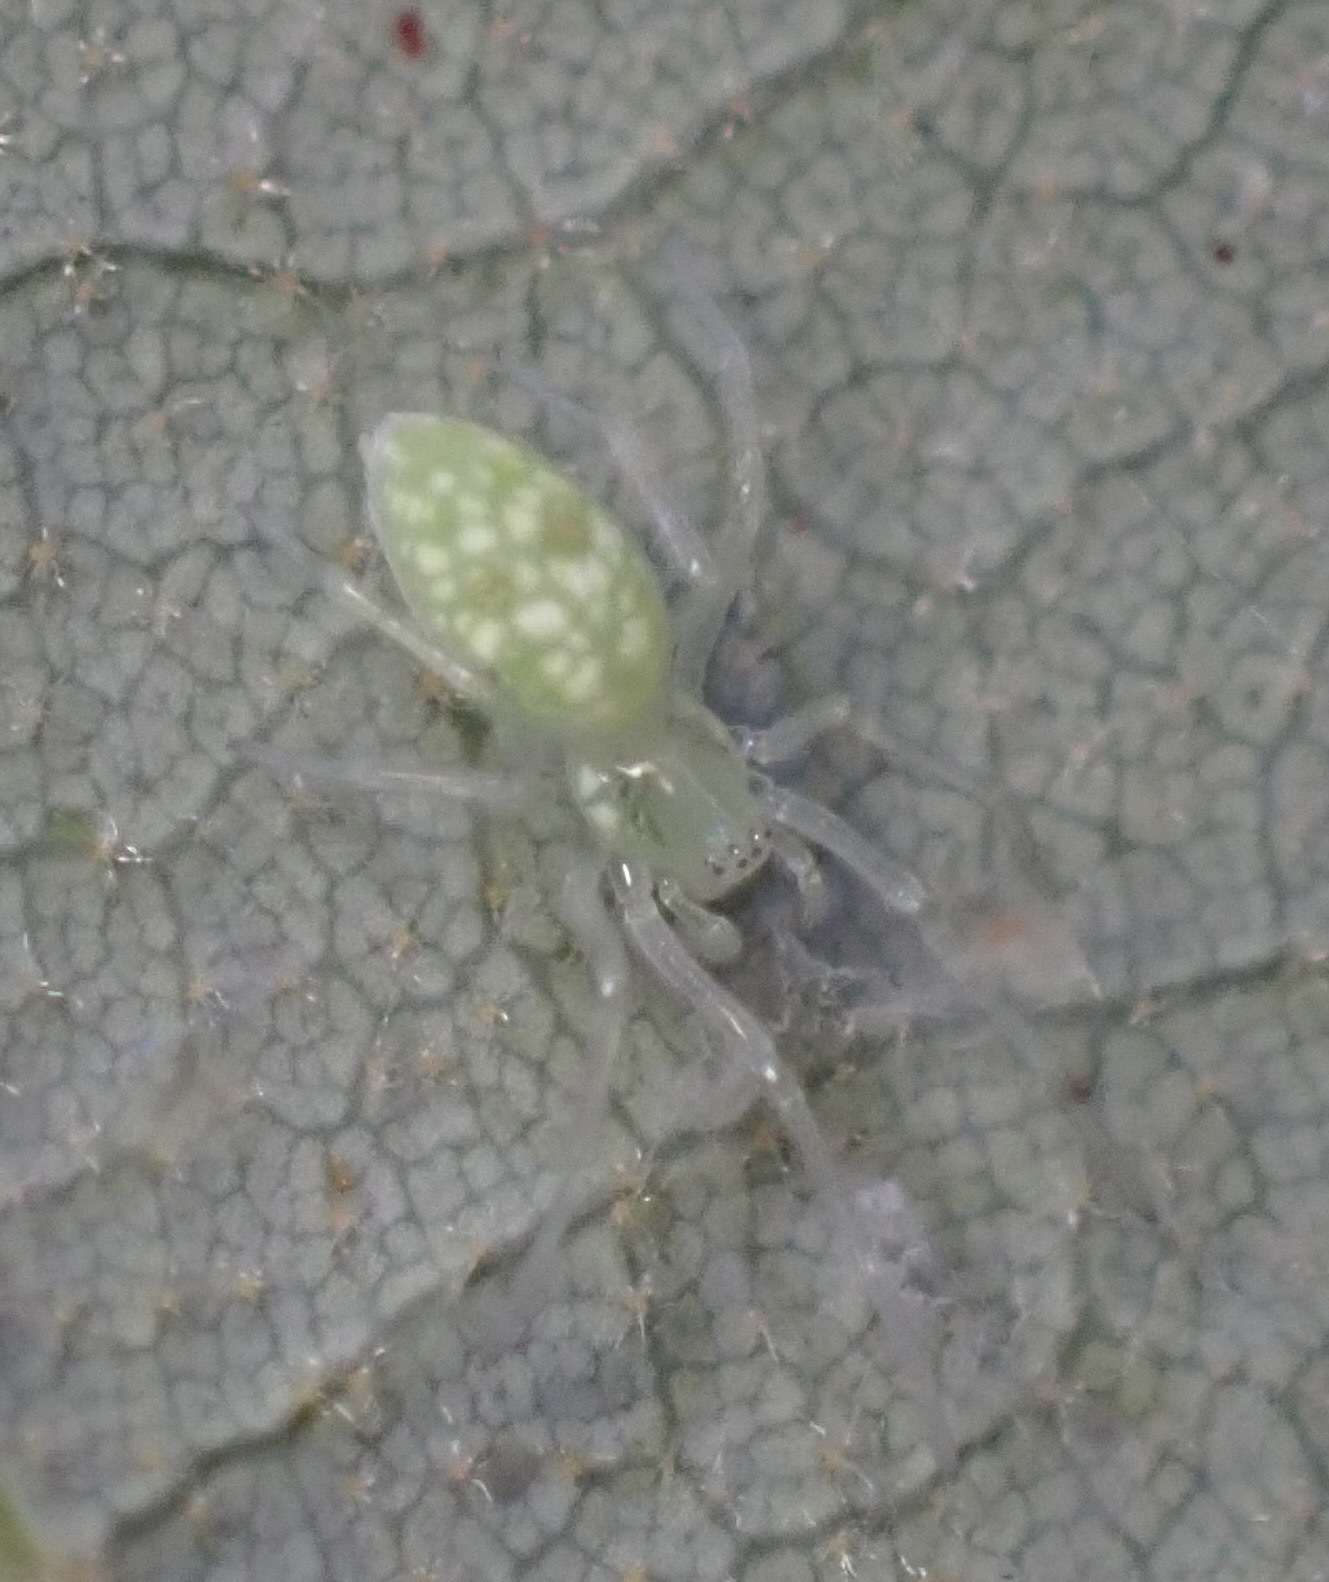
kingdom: Animalia
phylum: Arthropoda
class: Arachnida
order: Araneae
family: Dictynidae
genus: Nigma
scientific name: Nigma linsdalei
